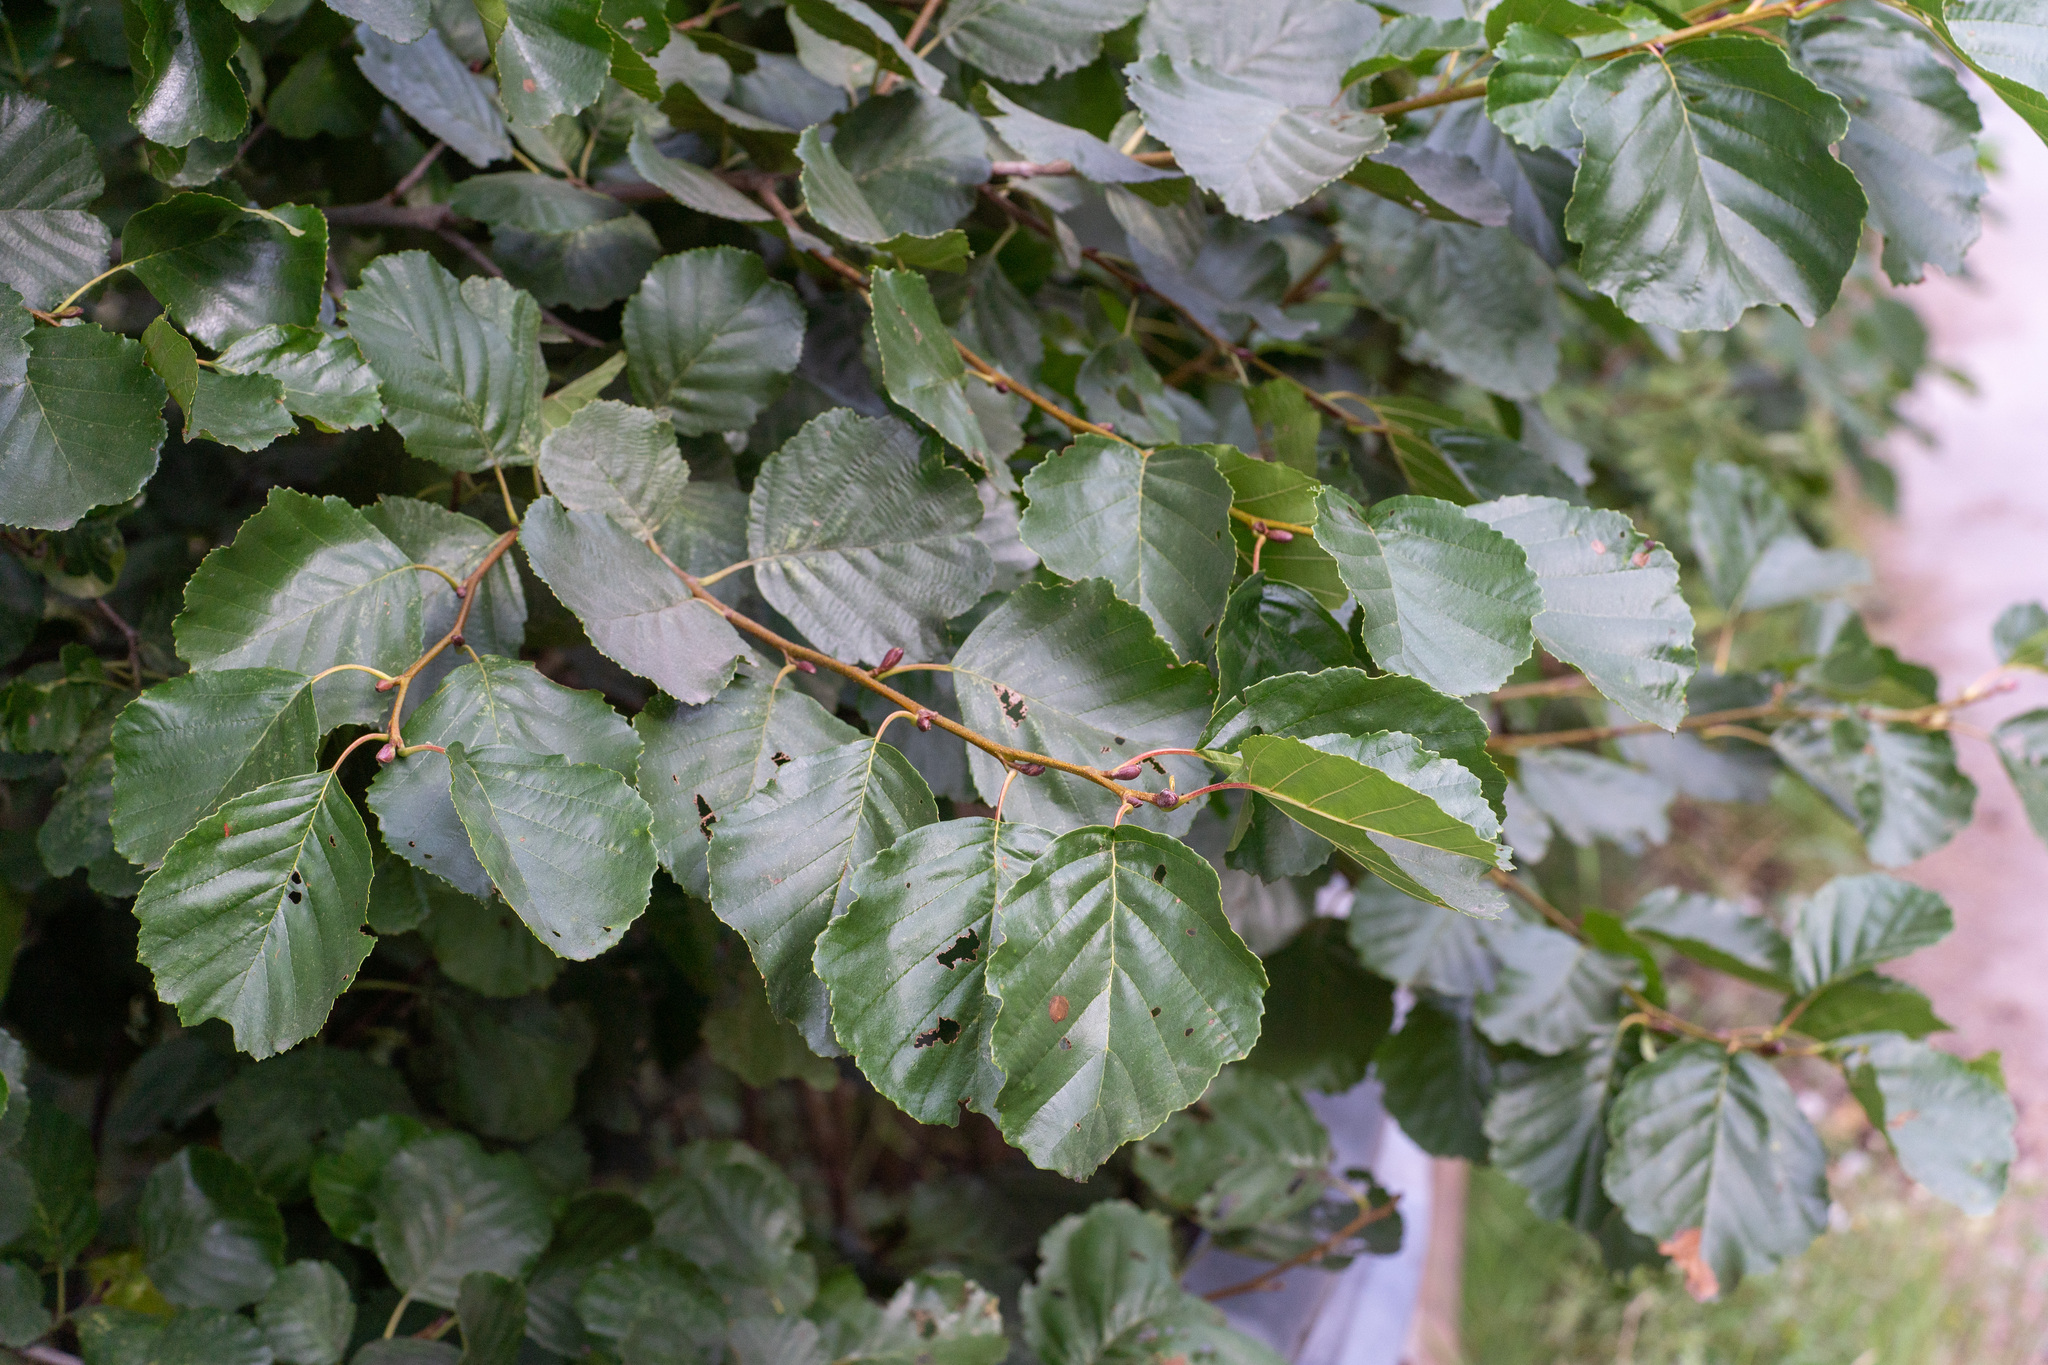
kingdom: Plantae
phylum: Tracheophyta
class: Magnoliopsida
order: Fagales
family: Betulaceae
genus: Alnus
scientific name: Alnus glutinosa
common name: Black alder
